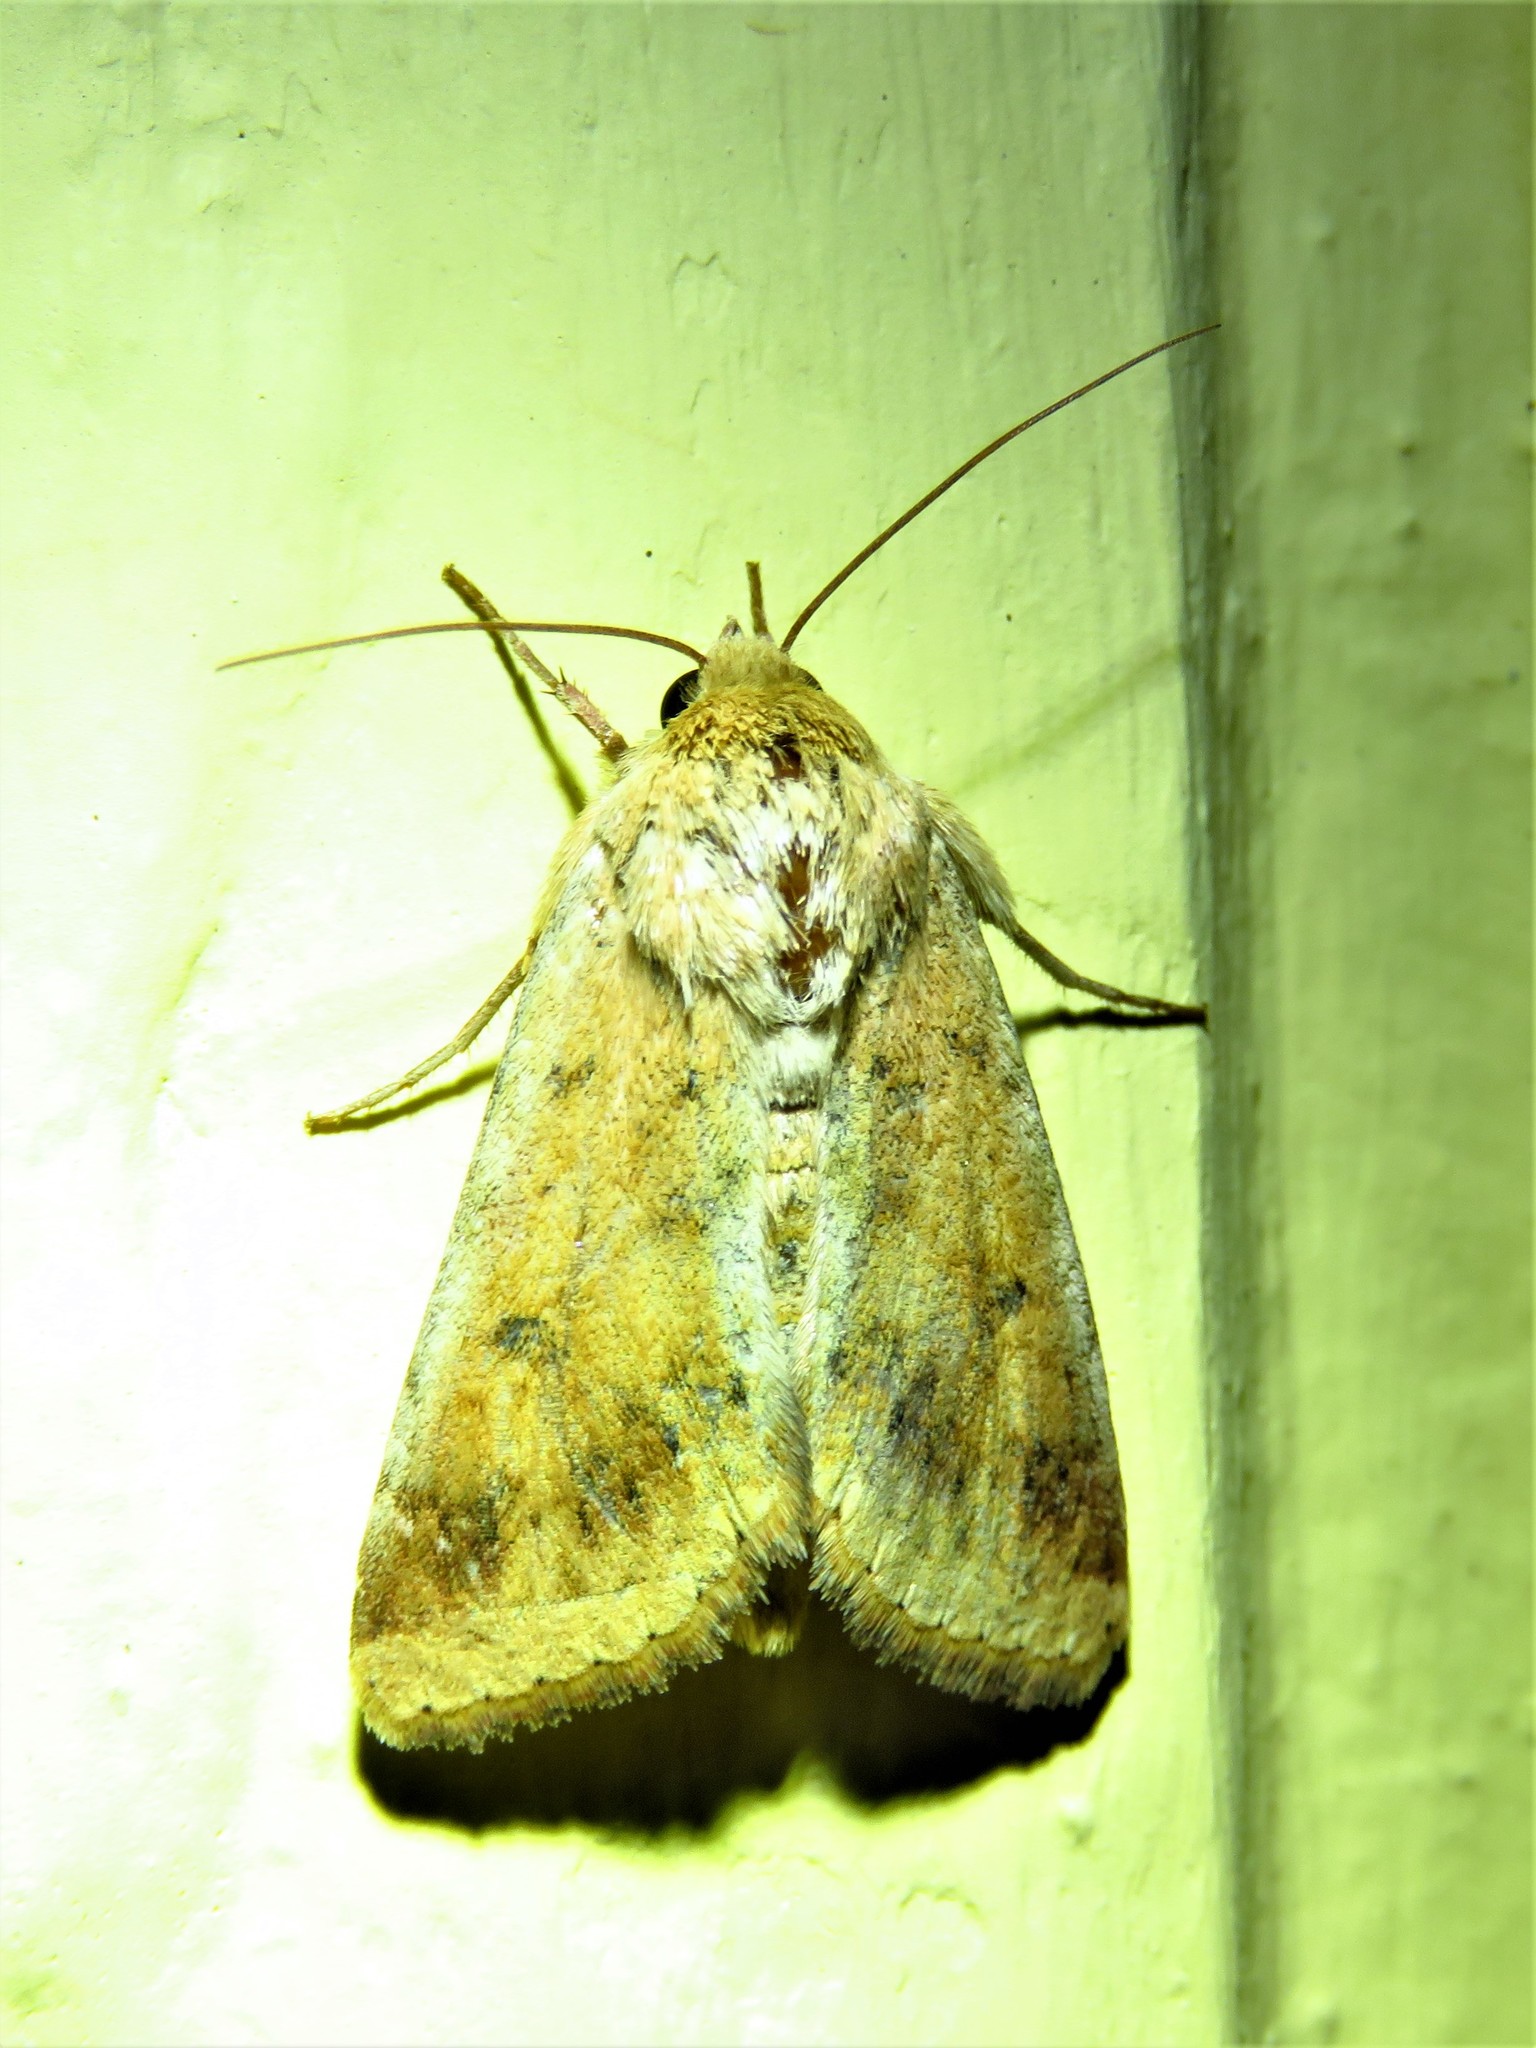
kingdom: Animalia
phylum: Arthropoda
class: Insecta
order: Lepidoptera
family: Noctuidae
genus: Helicoverpa
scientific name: Helicoverpa zea
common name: Bollworm
